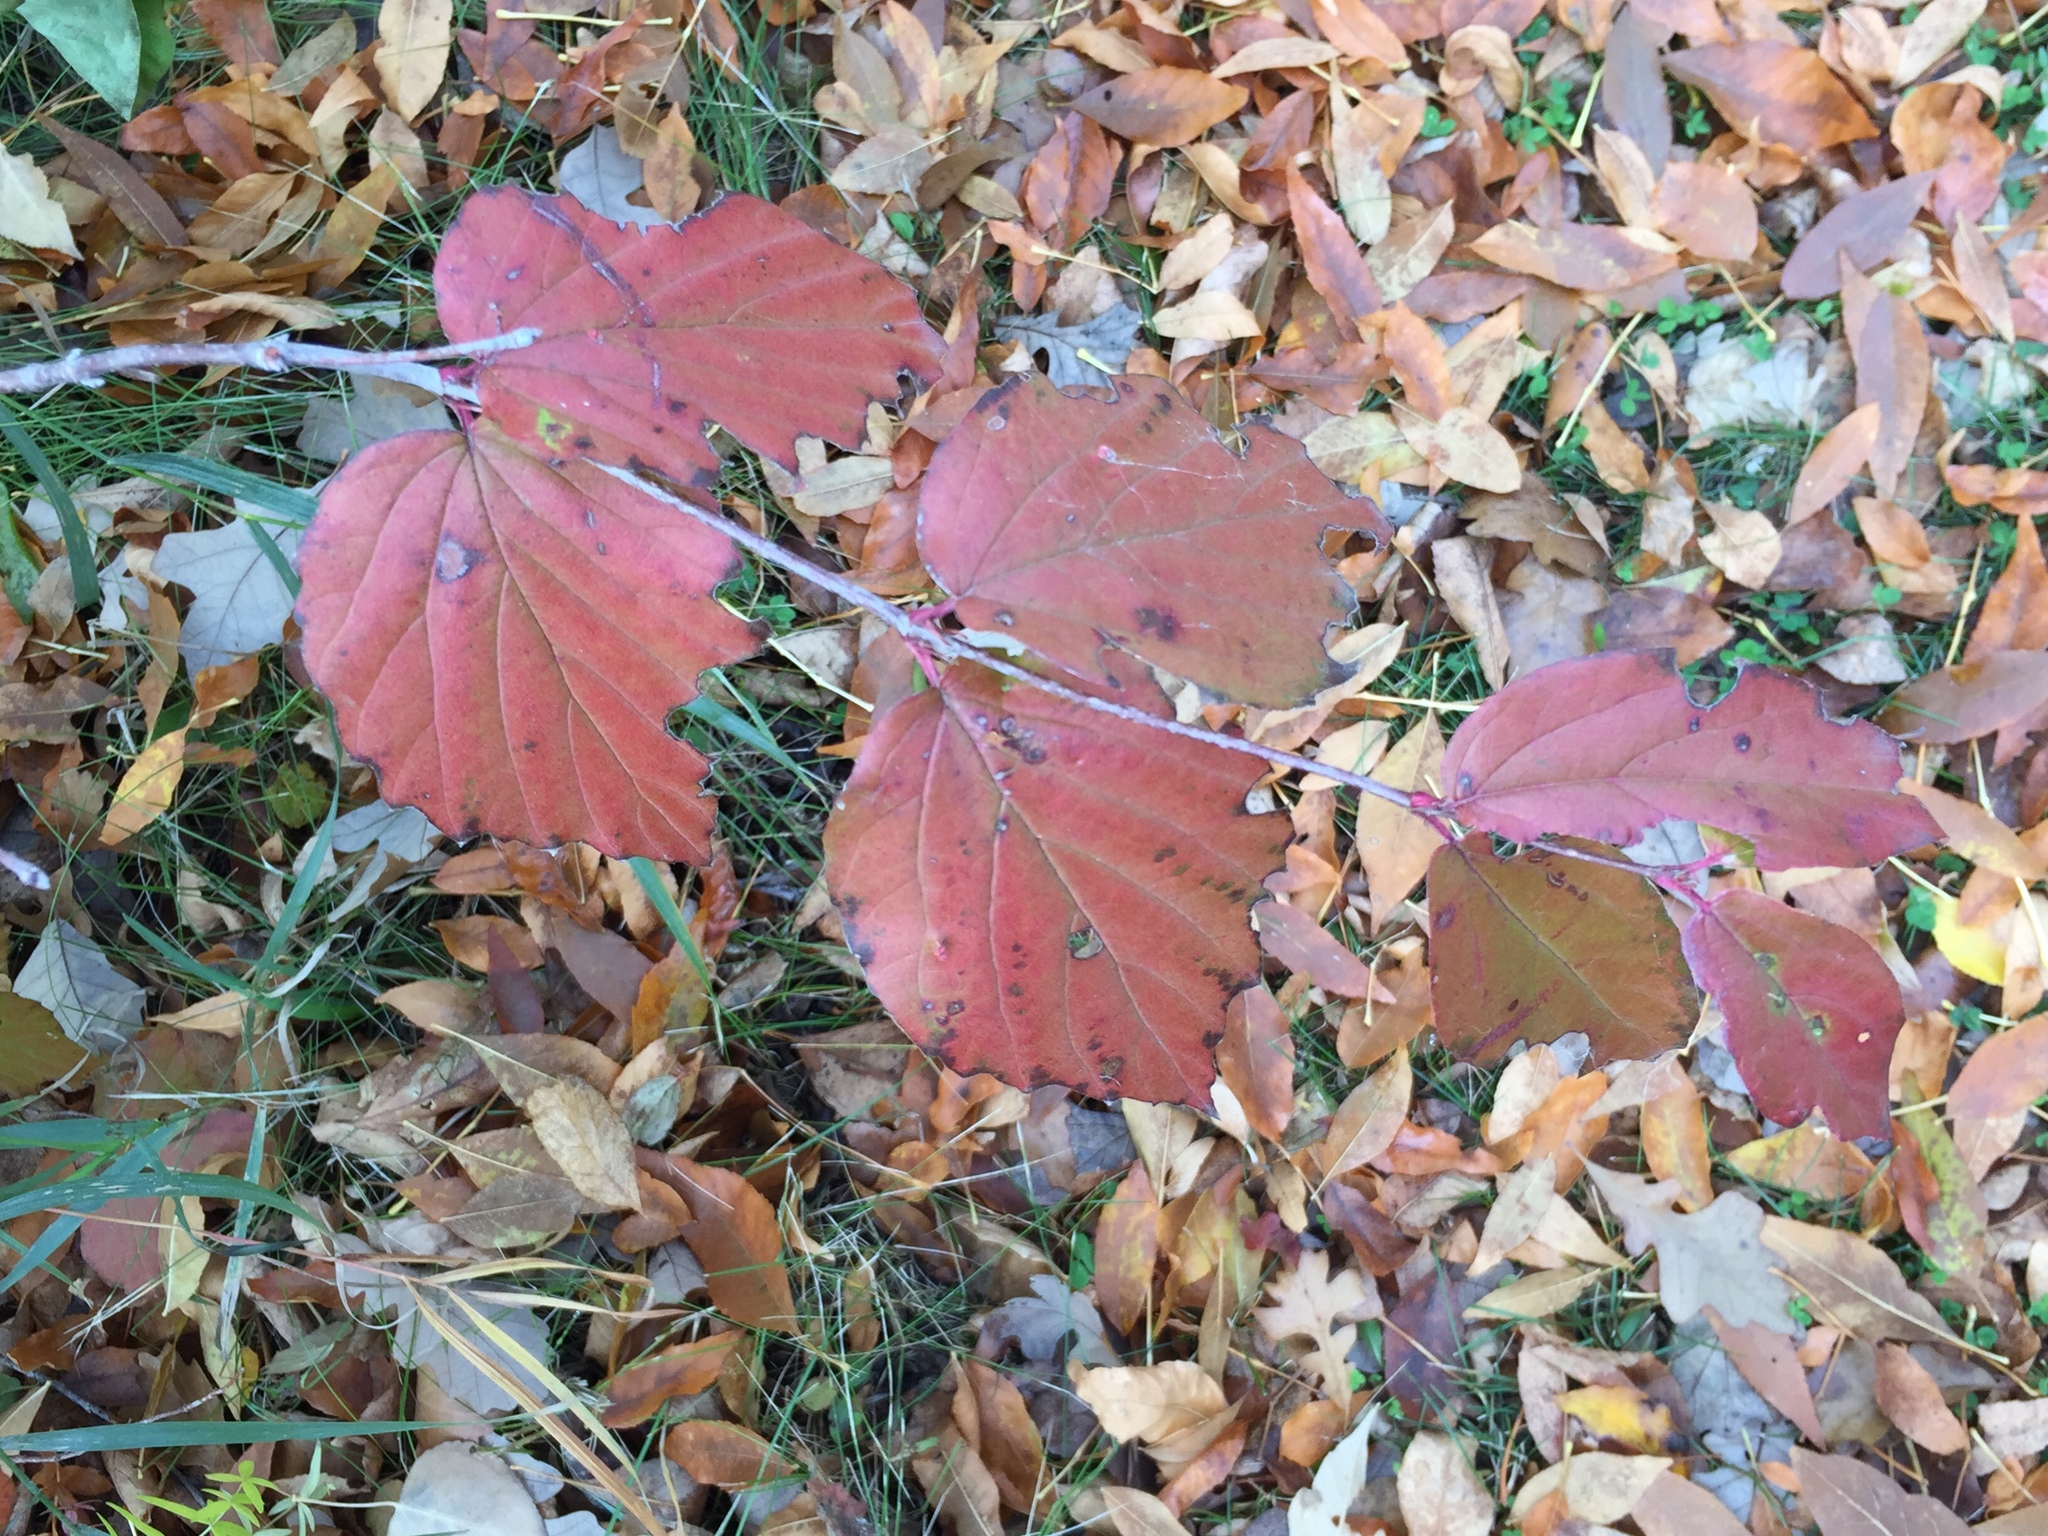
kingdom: Plantae
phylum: Tracheophyta
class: Magnoliopsida
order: Dipsacales
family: Viburnaceae
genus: Viburnum
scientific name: Viburnum rafinesqueanum
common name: Downy arrow-wood
